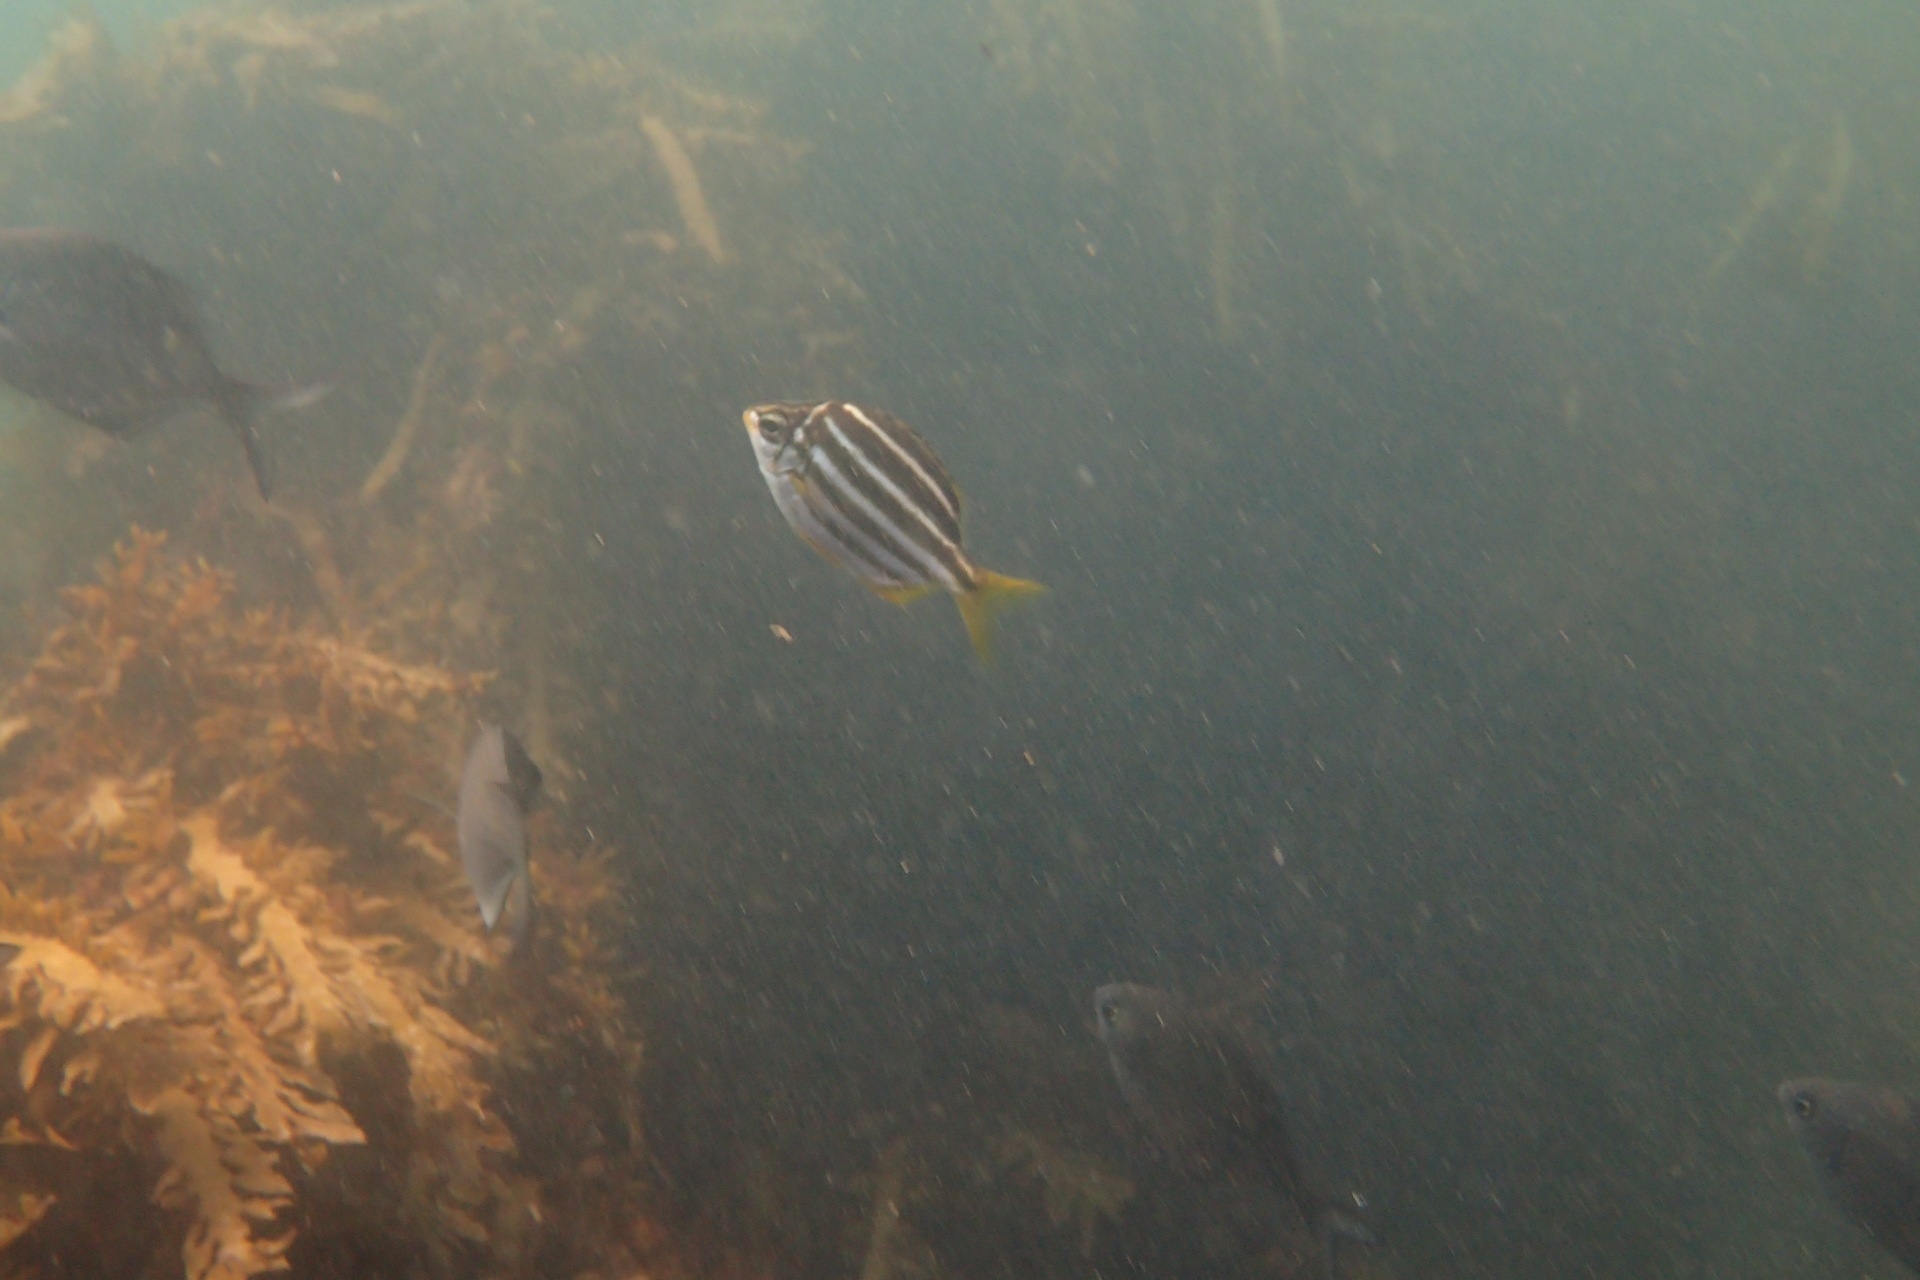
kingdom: Animalia
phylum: Chordata
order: Perciformes
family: Kyphosidae
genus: Atypichthys
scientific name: Atypichthys latus
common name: Mado
